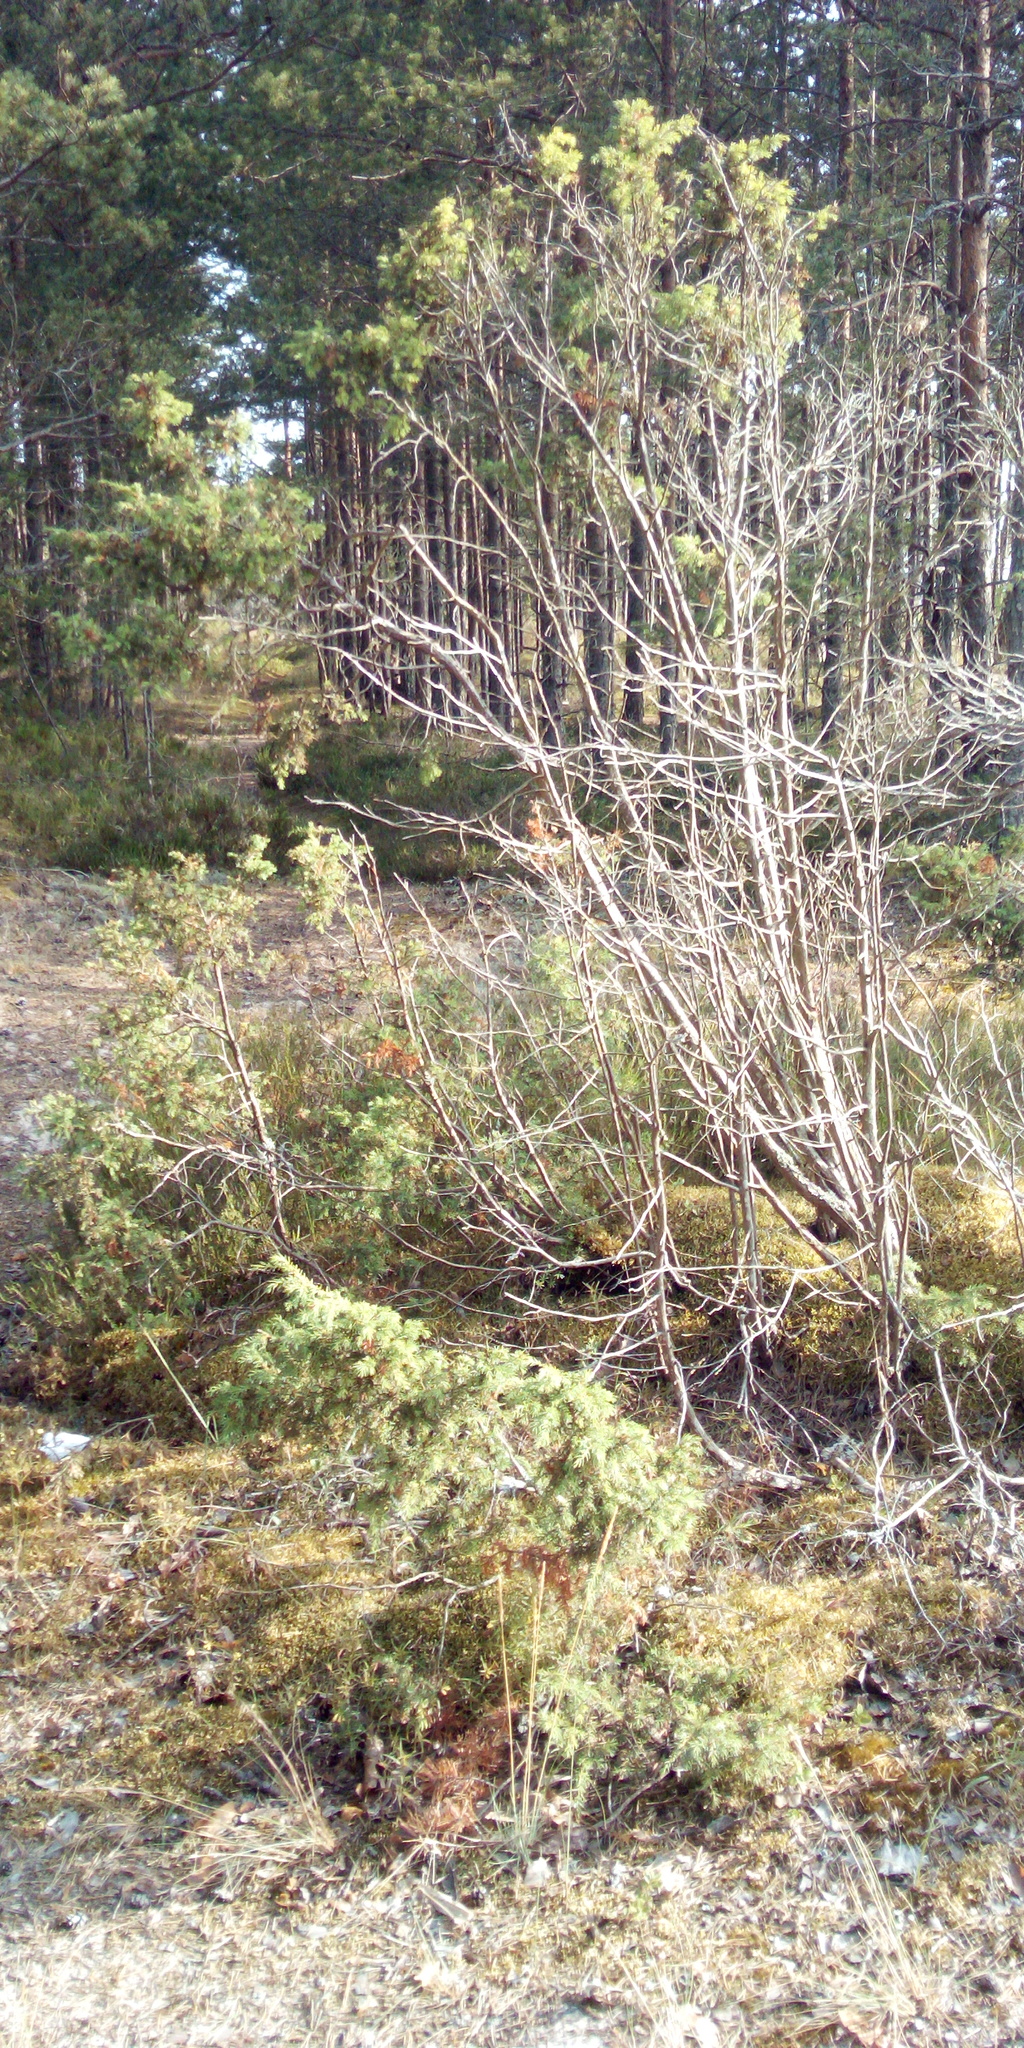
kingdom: Plantae
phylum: Tracheophyta
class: Pinopsida
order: Pinales
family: Cupressaceae
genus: Juniperus
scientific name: Juniperus communis
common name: Common juniper
